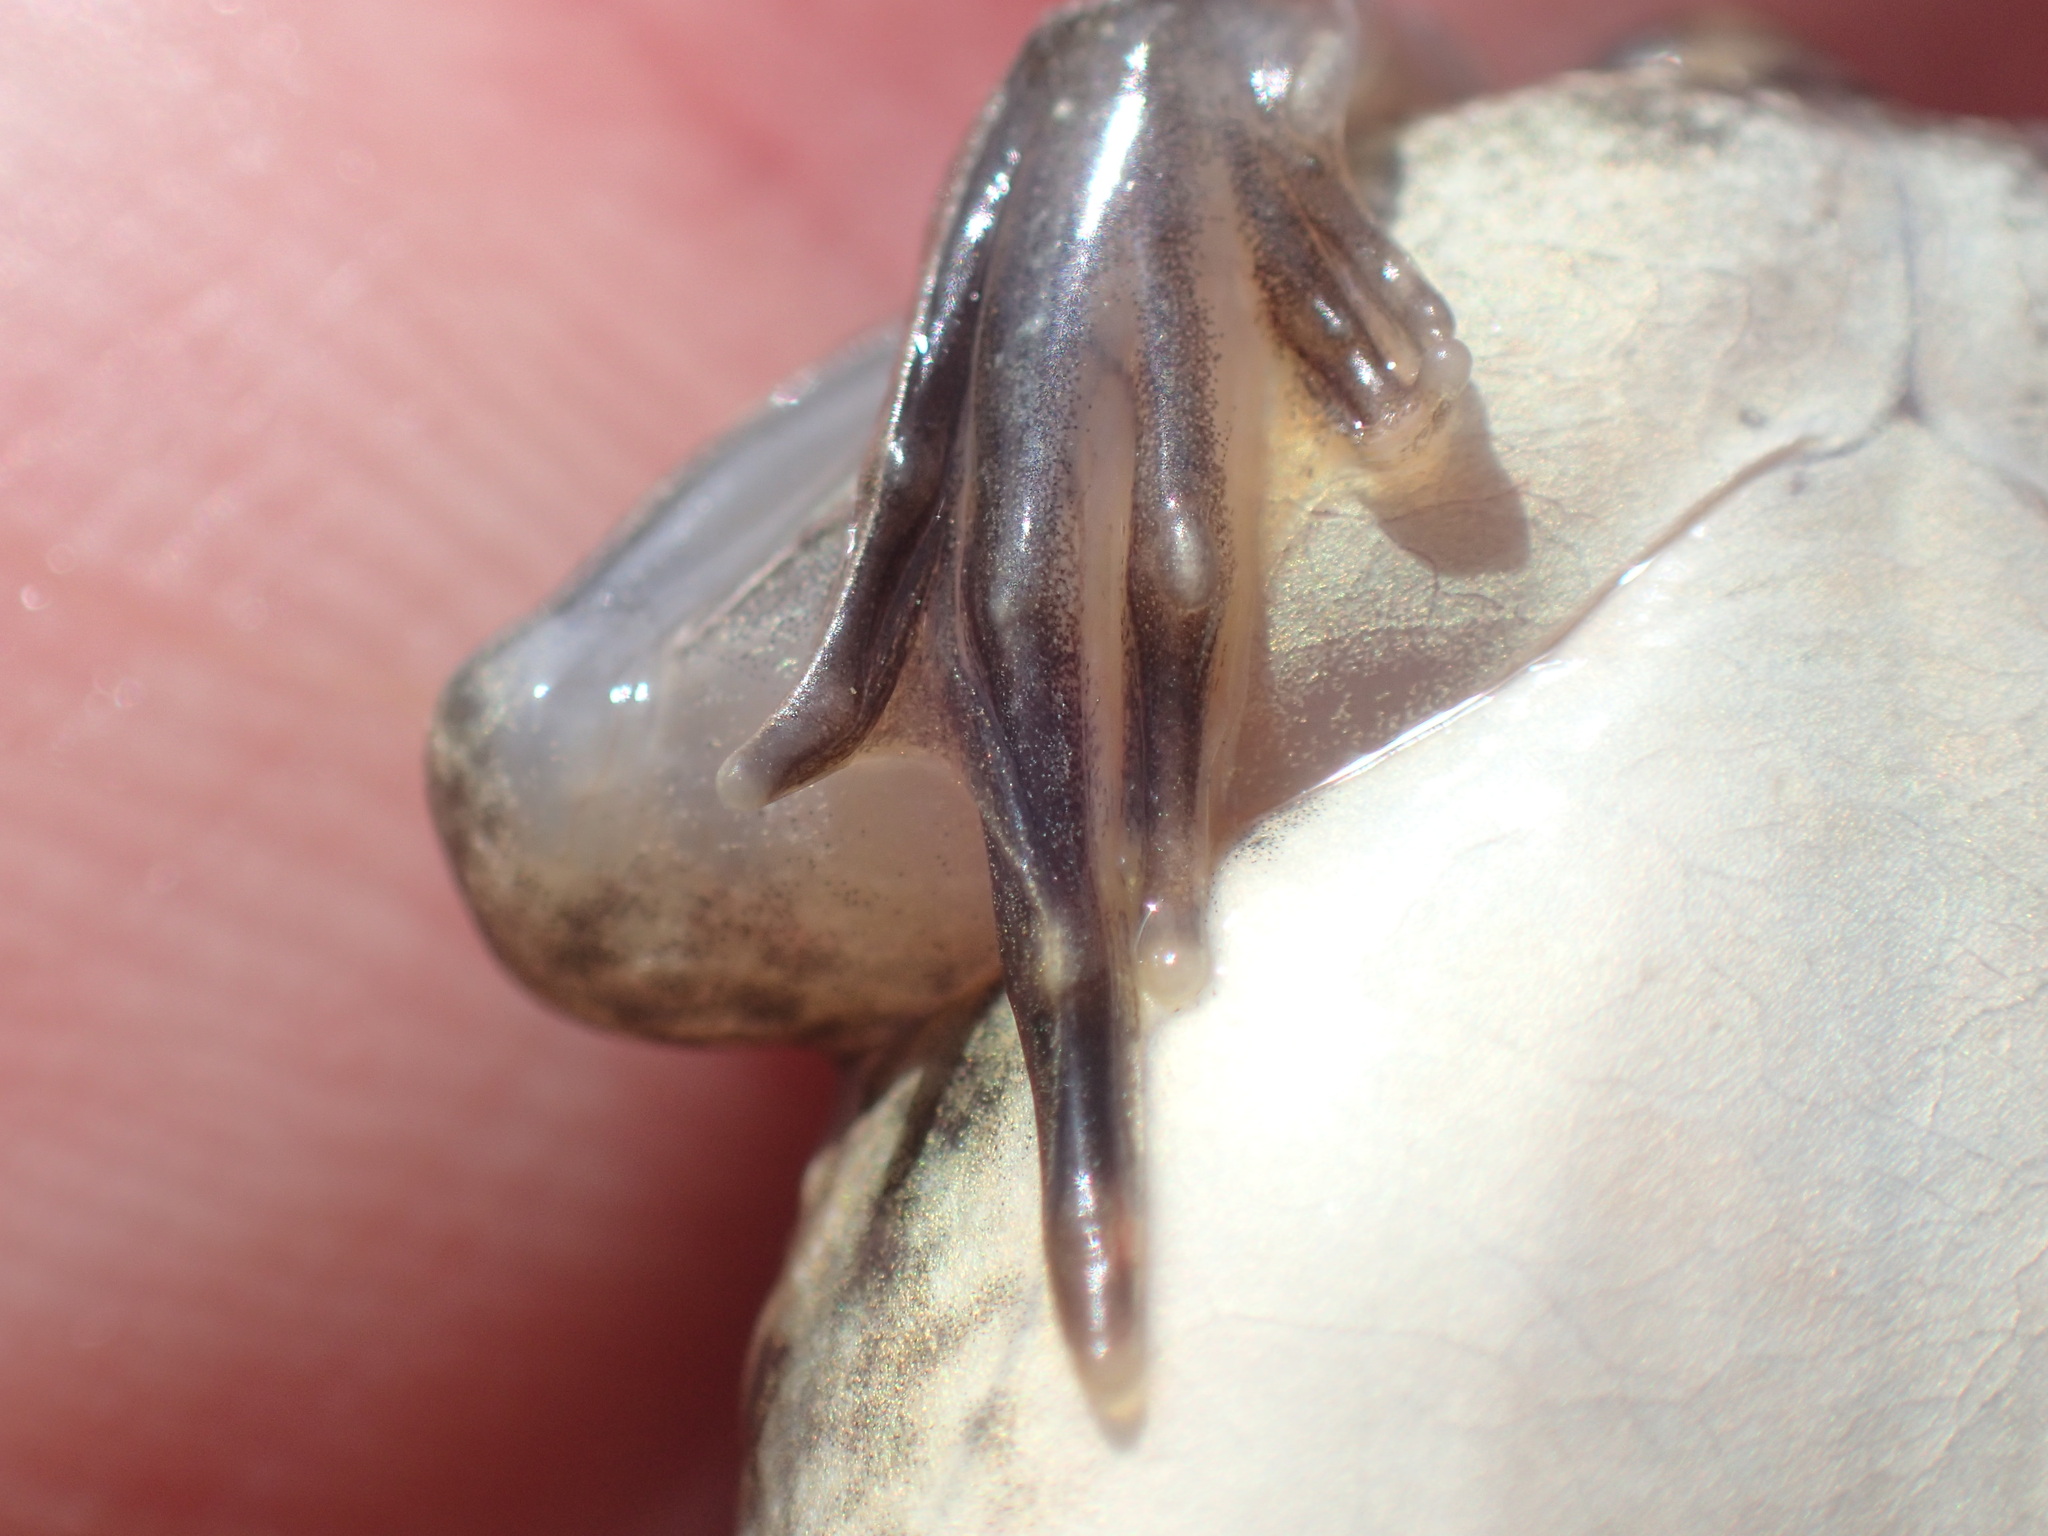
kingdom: Animalia
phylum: Chordata
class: Amphibia
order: Anura
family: Pyxicephalidae
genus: Amietia
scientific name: Amietia poyntoni
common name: Poynton's river frog
